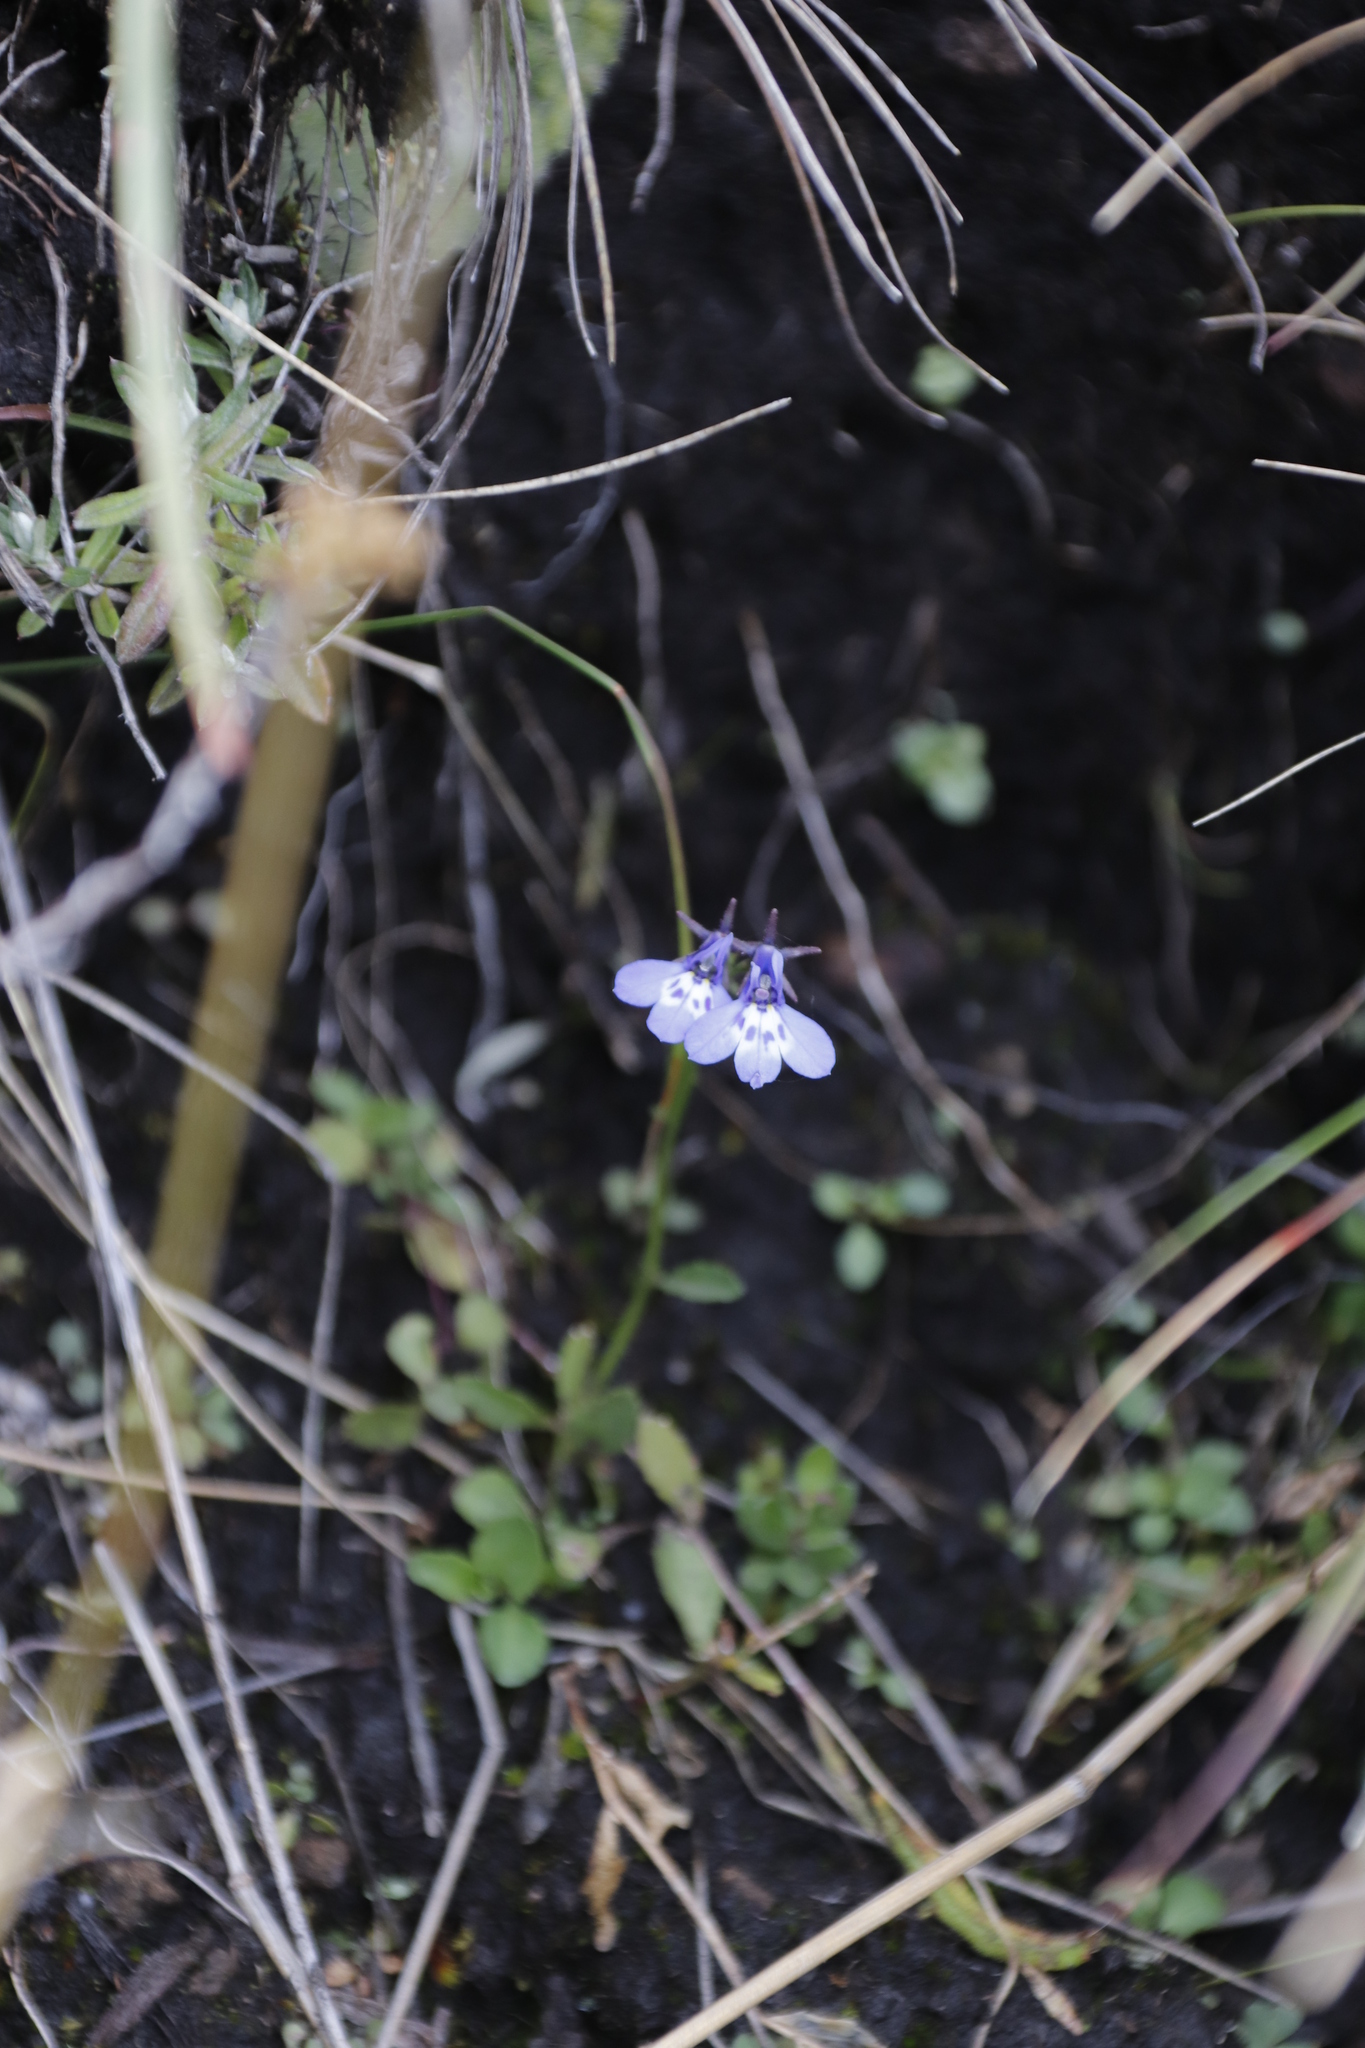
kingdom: Plantae
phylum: Tracheophyta
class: Magnoliopsida
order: Asterales
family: Campanulaceae
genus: Lobelia
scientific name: Lobelia flaccida
